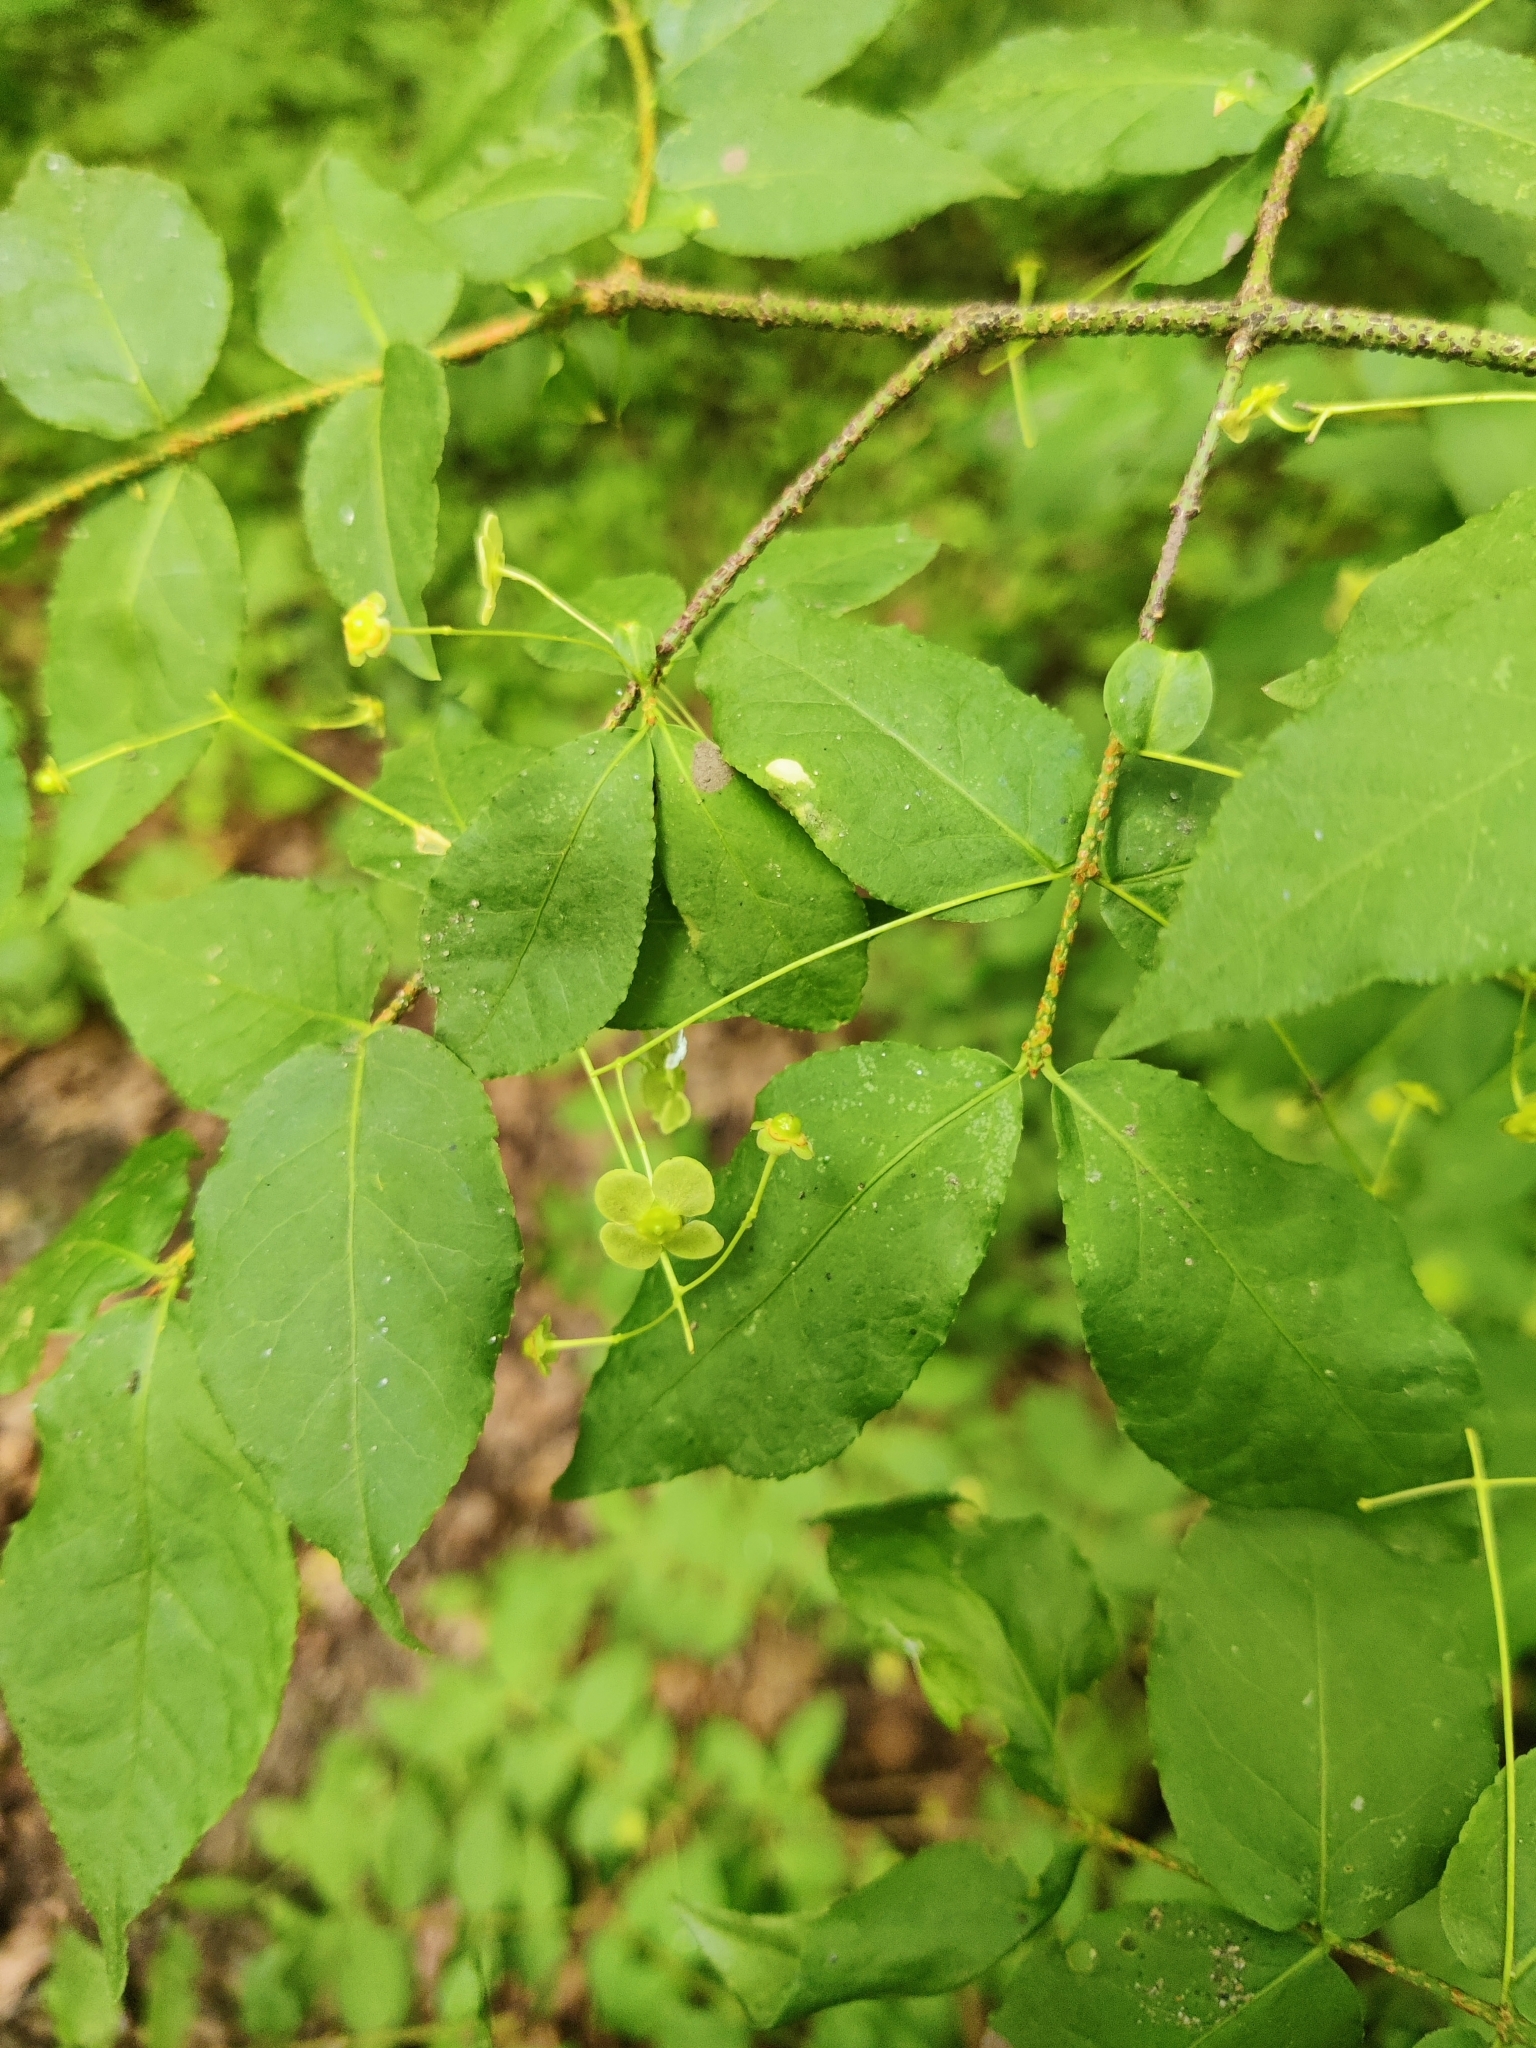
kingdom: Plantae
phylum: Tracheophyta
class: Magnoliopsida
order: Celastrales
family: Celastraceae
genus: Euonymus
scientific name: Euonymus verrucosus
